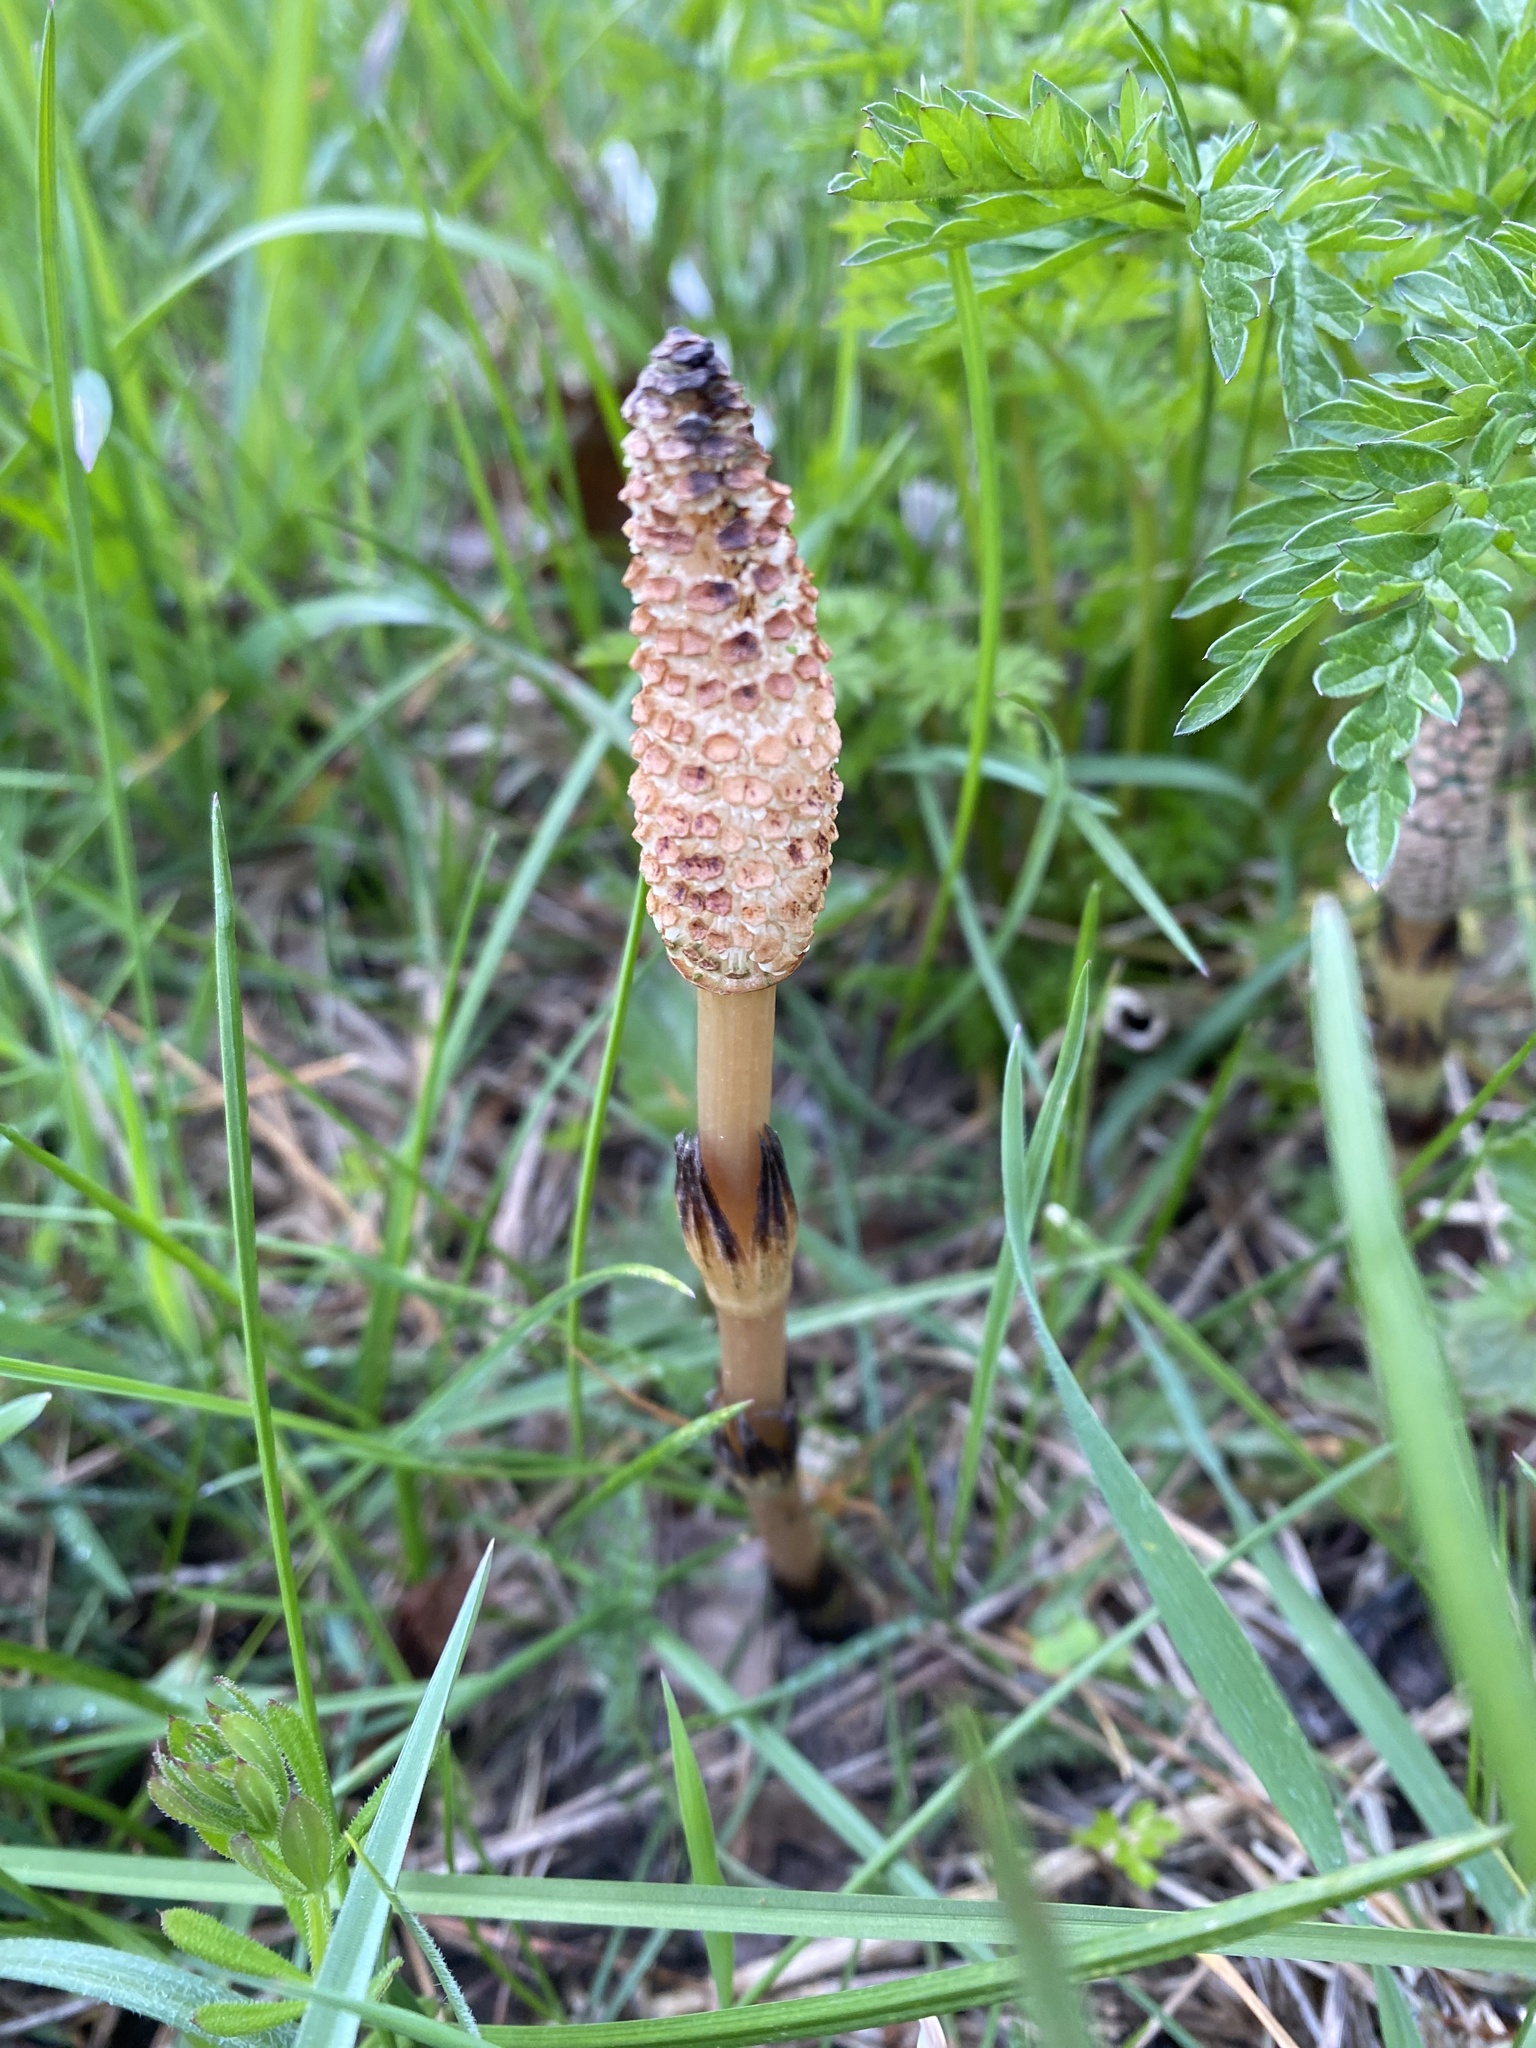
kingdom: Plantae
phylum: Tracheophyta
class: Polypodiopsida
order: Equisetales
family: Equisetaceae
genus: Equisetum
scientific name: Equisetum telmateia
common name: Great horsetail
